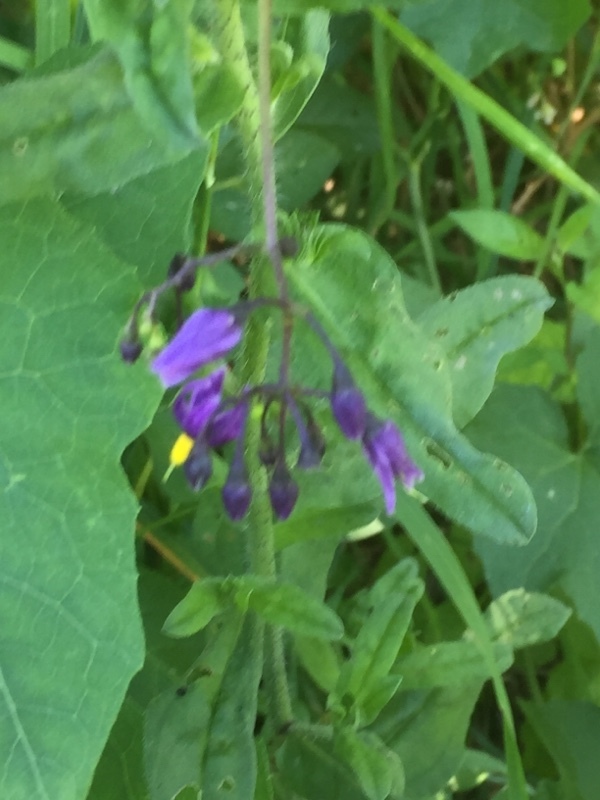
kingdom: Plantae
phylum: Tracheophyta
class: Magnoliopsida
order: Solanales
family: Solanaceae
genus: Solanum
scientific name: Solanum dulcamara
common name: Climbing nightshade
